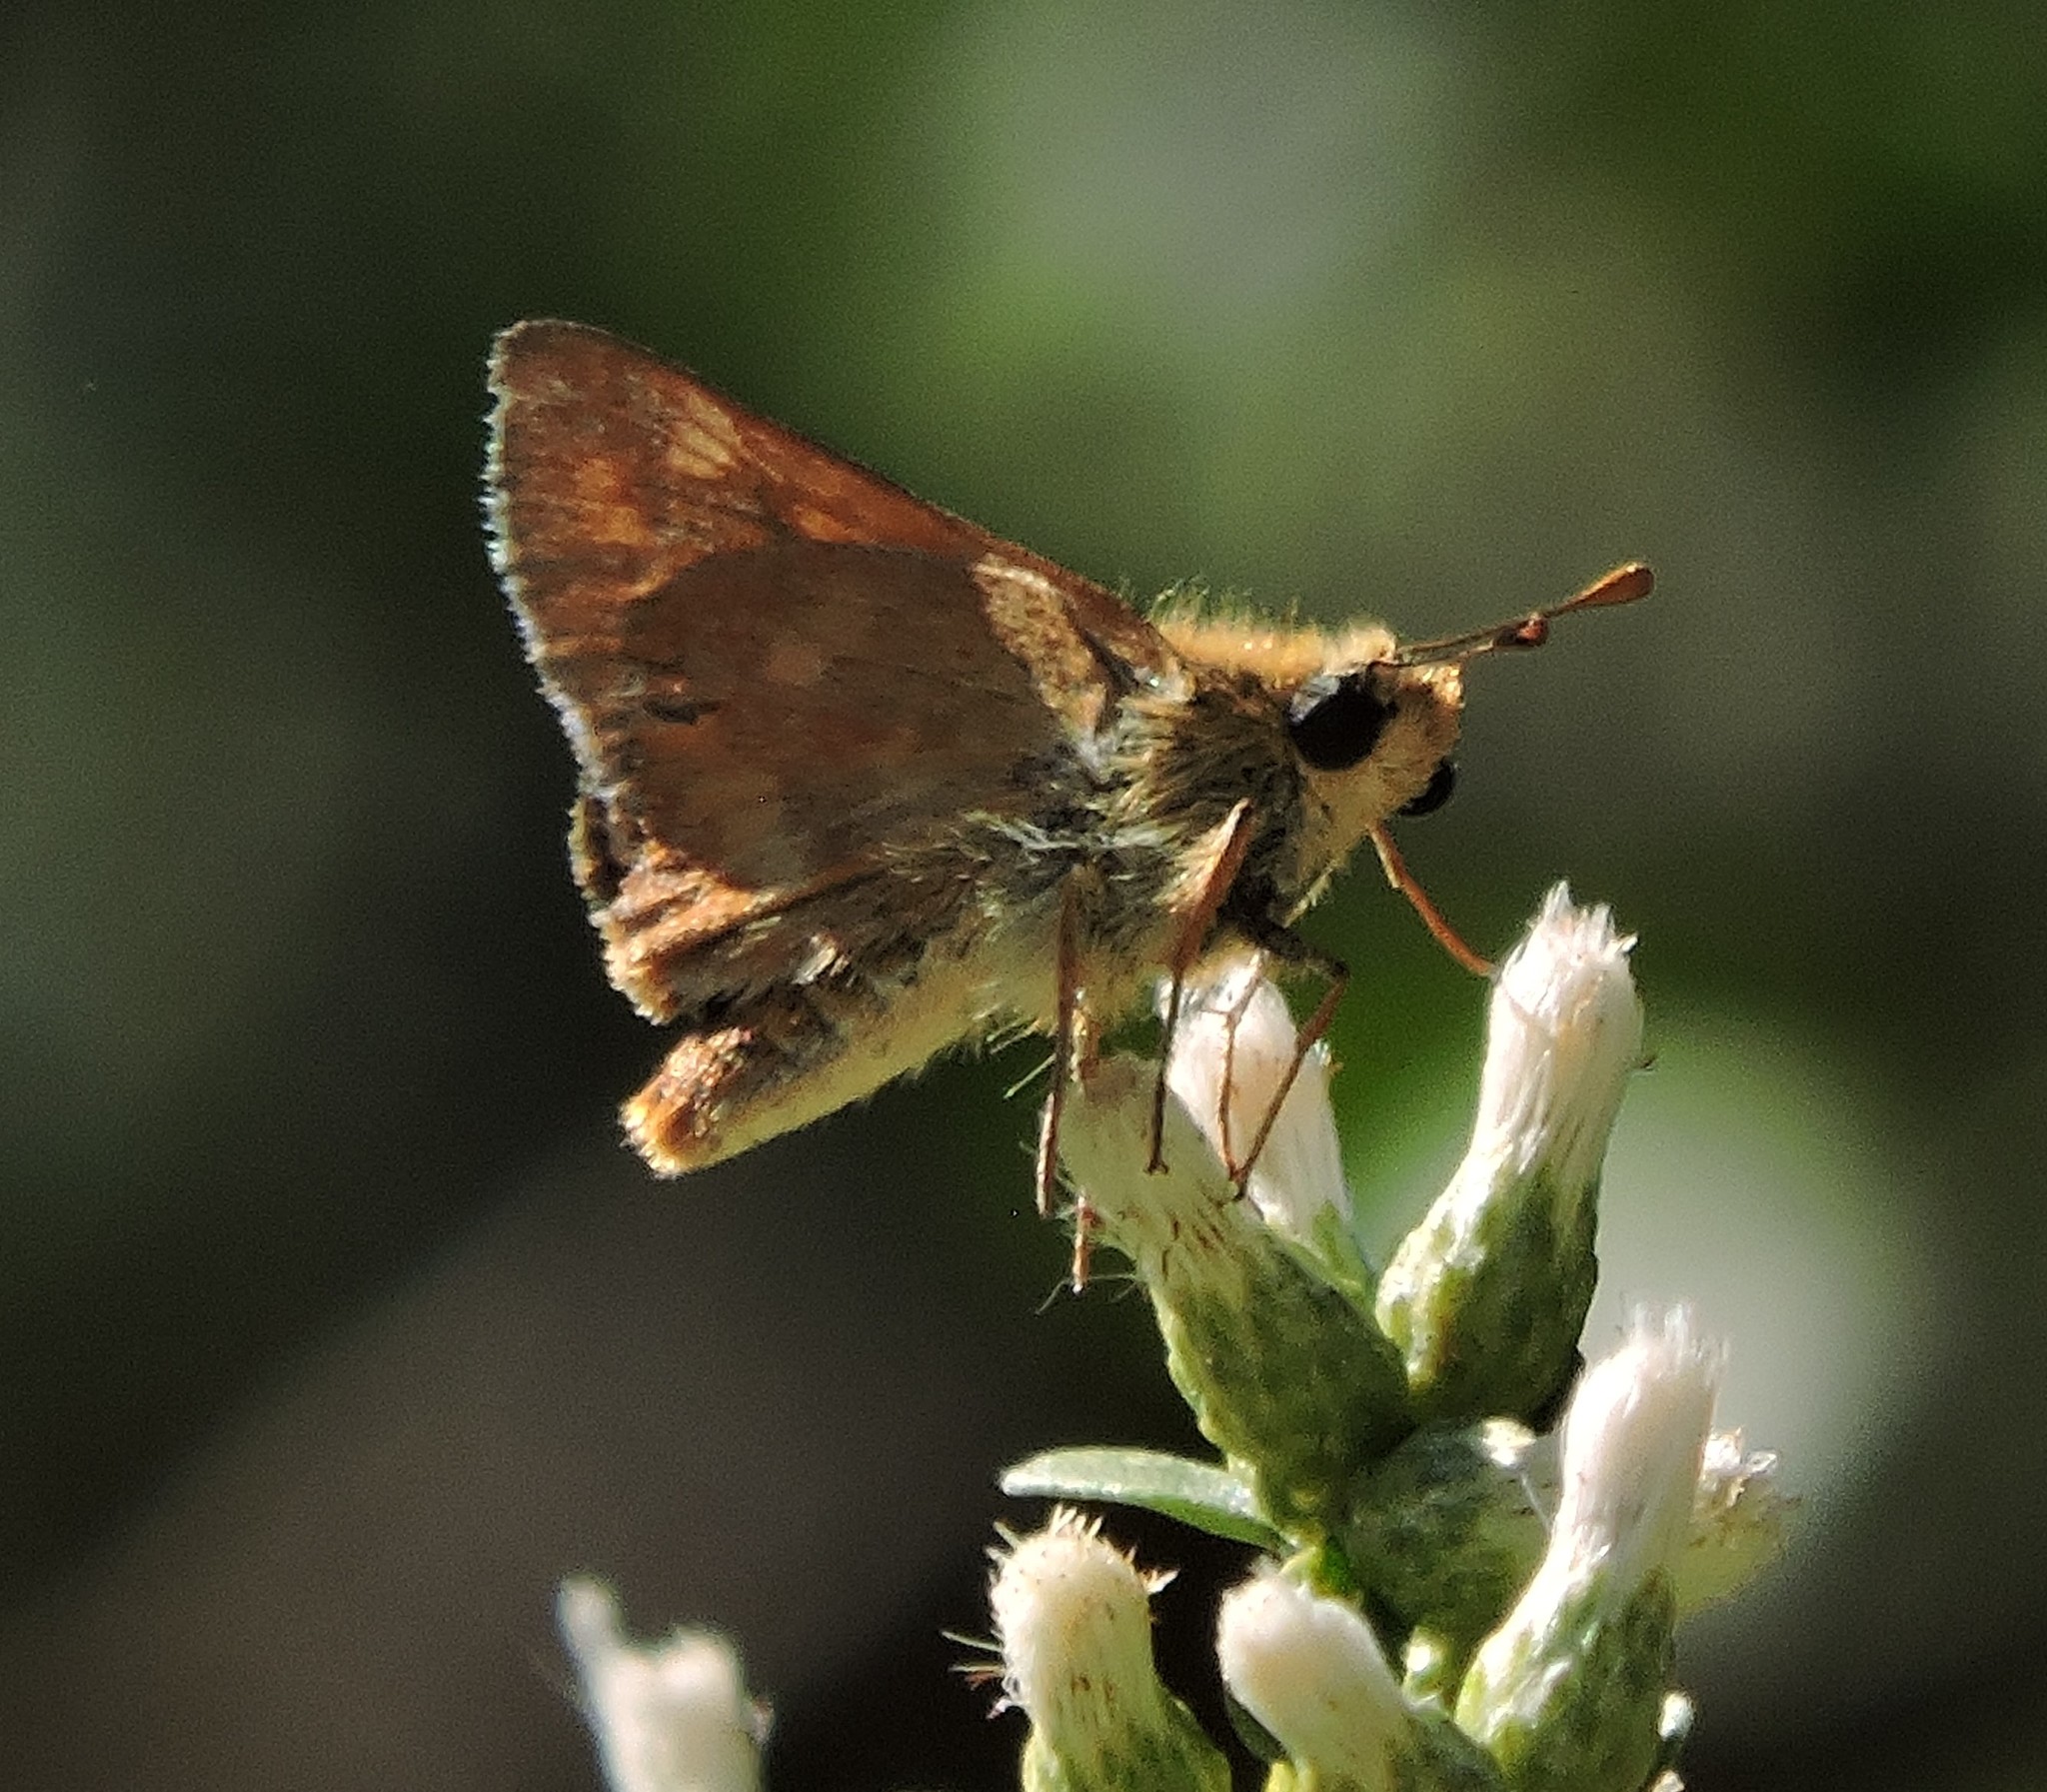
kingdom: Animalia
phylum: Arthropoda
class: Insecta
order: Lepidoptera
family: Hesperiidae
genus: Ochlodes
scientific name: Ochlodes sylvanoides
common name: Woodland skipper
